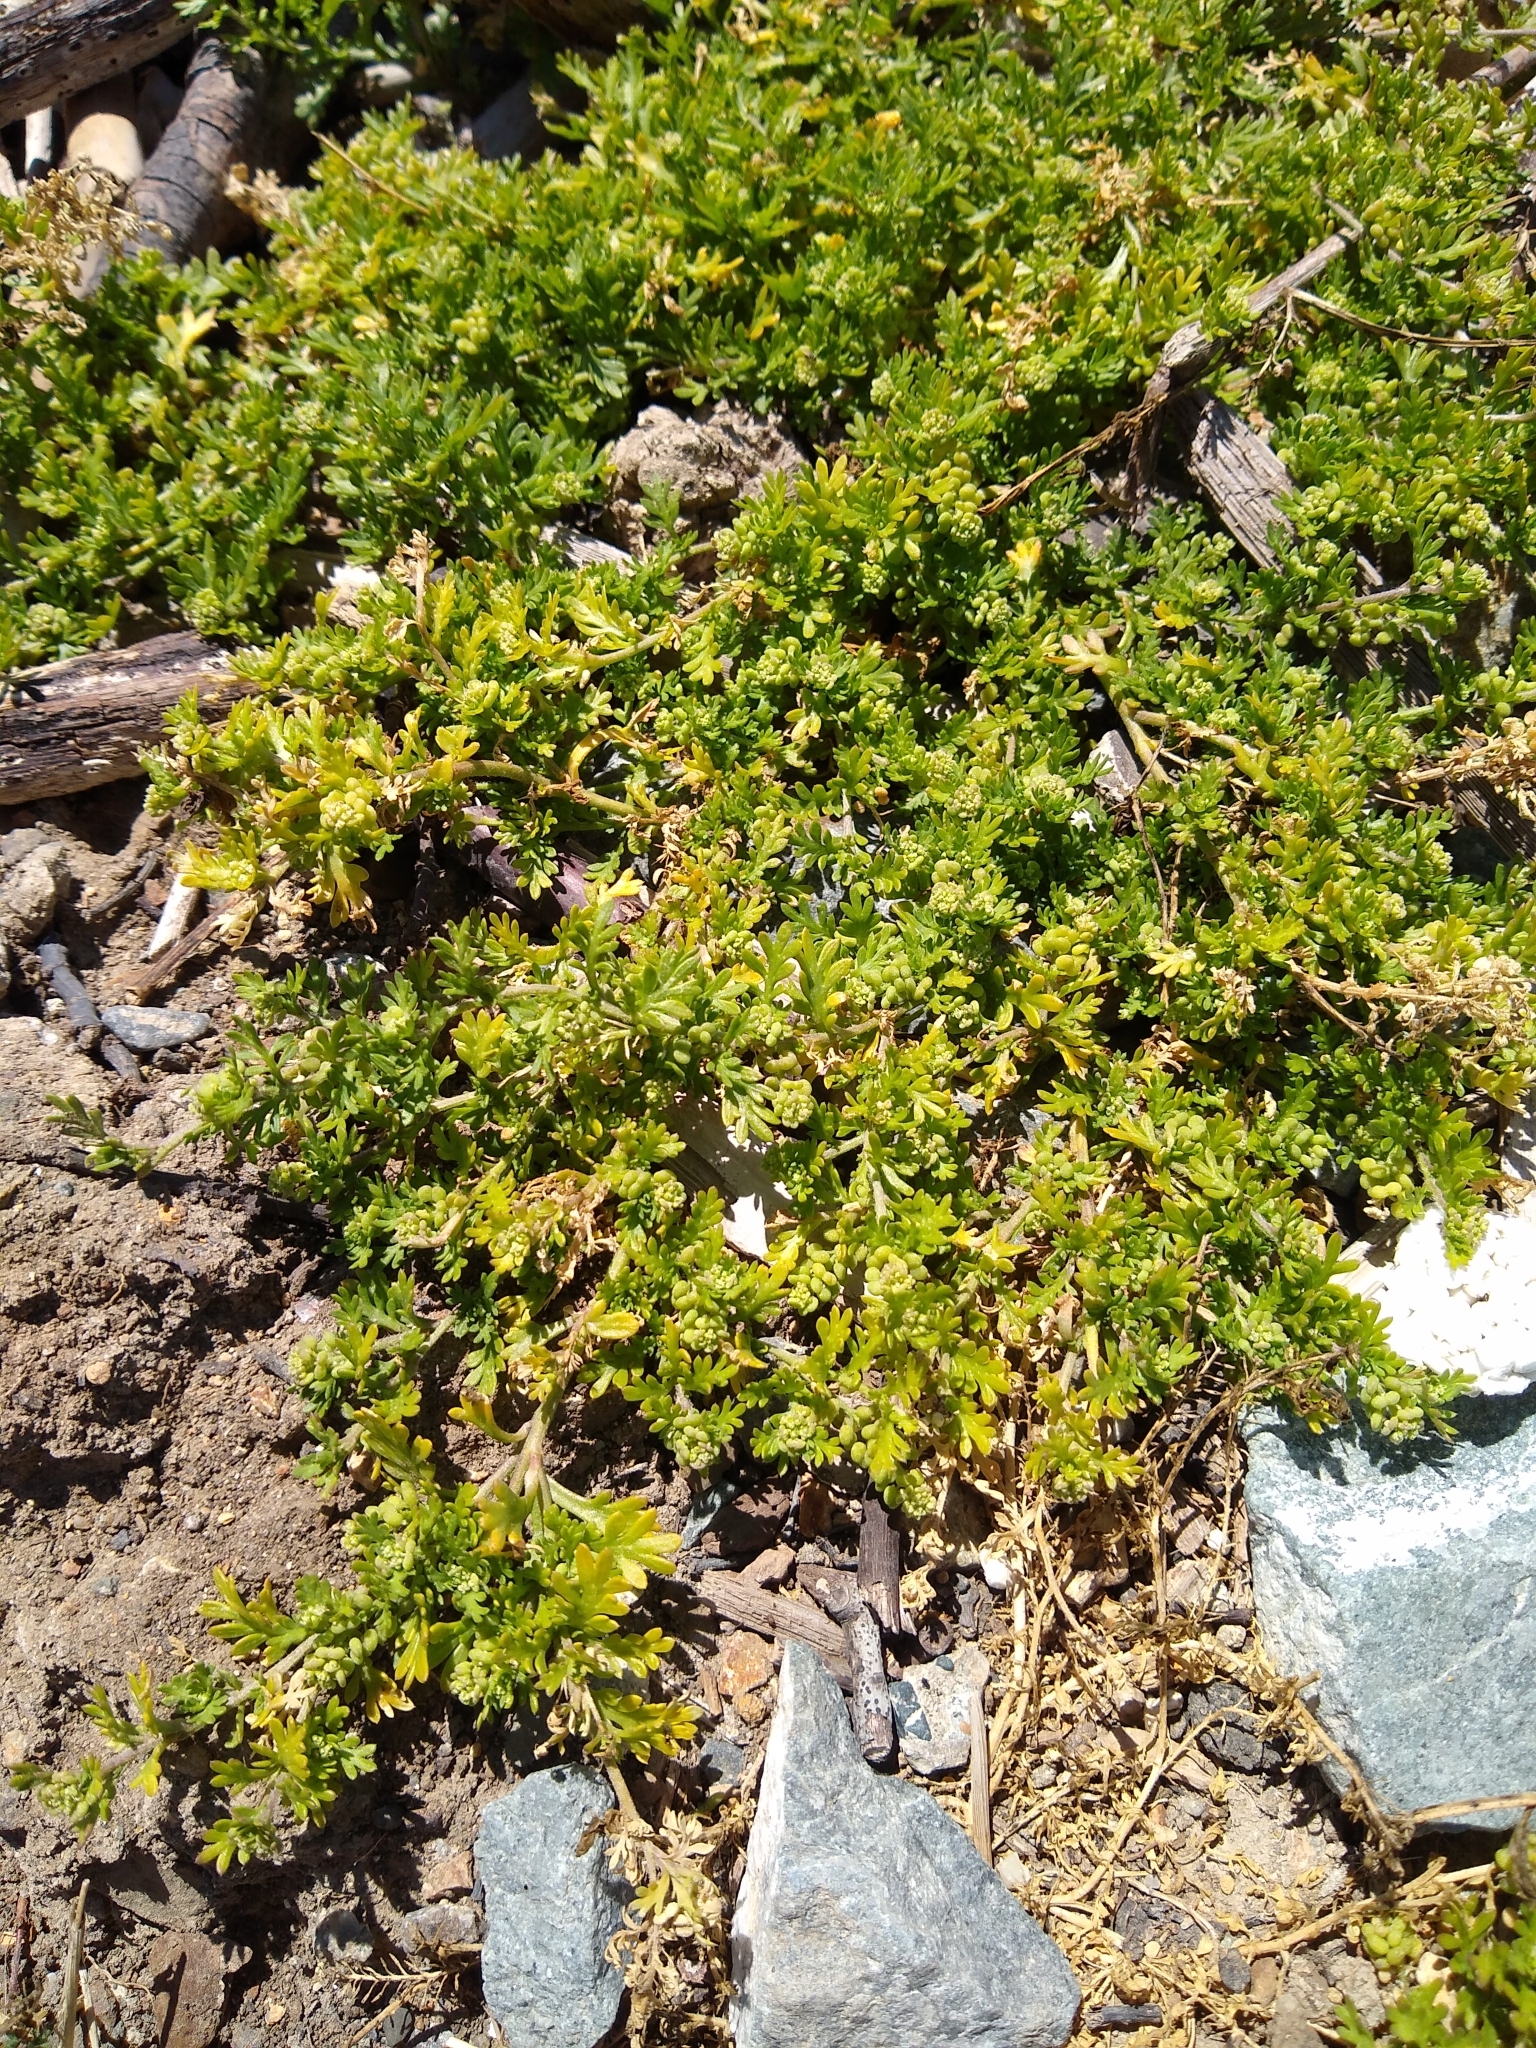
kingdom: Plantae
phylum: Tracheophyta
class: Magnoliopsida
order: Brassicales
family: Brassicaceae
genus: Lepidium
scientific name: Lepidium didymum
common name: Lesser swinecress
